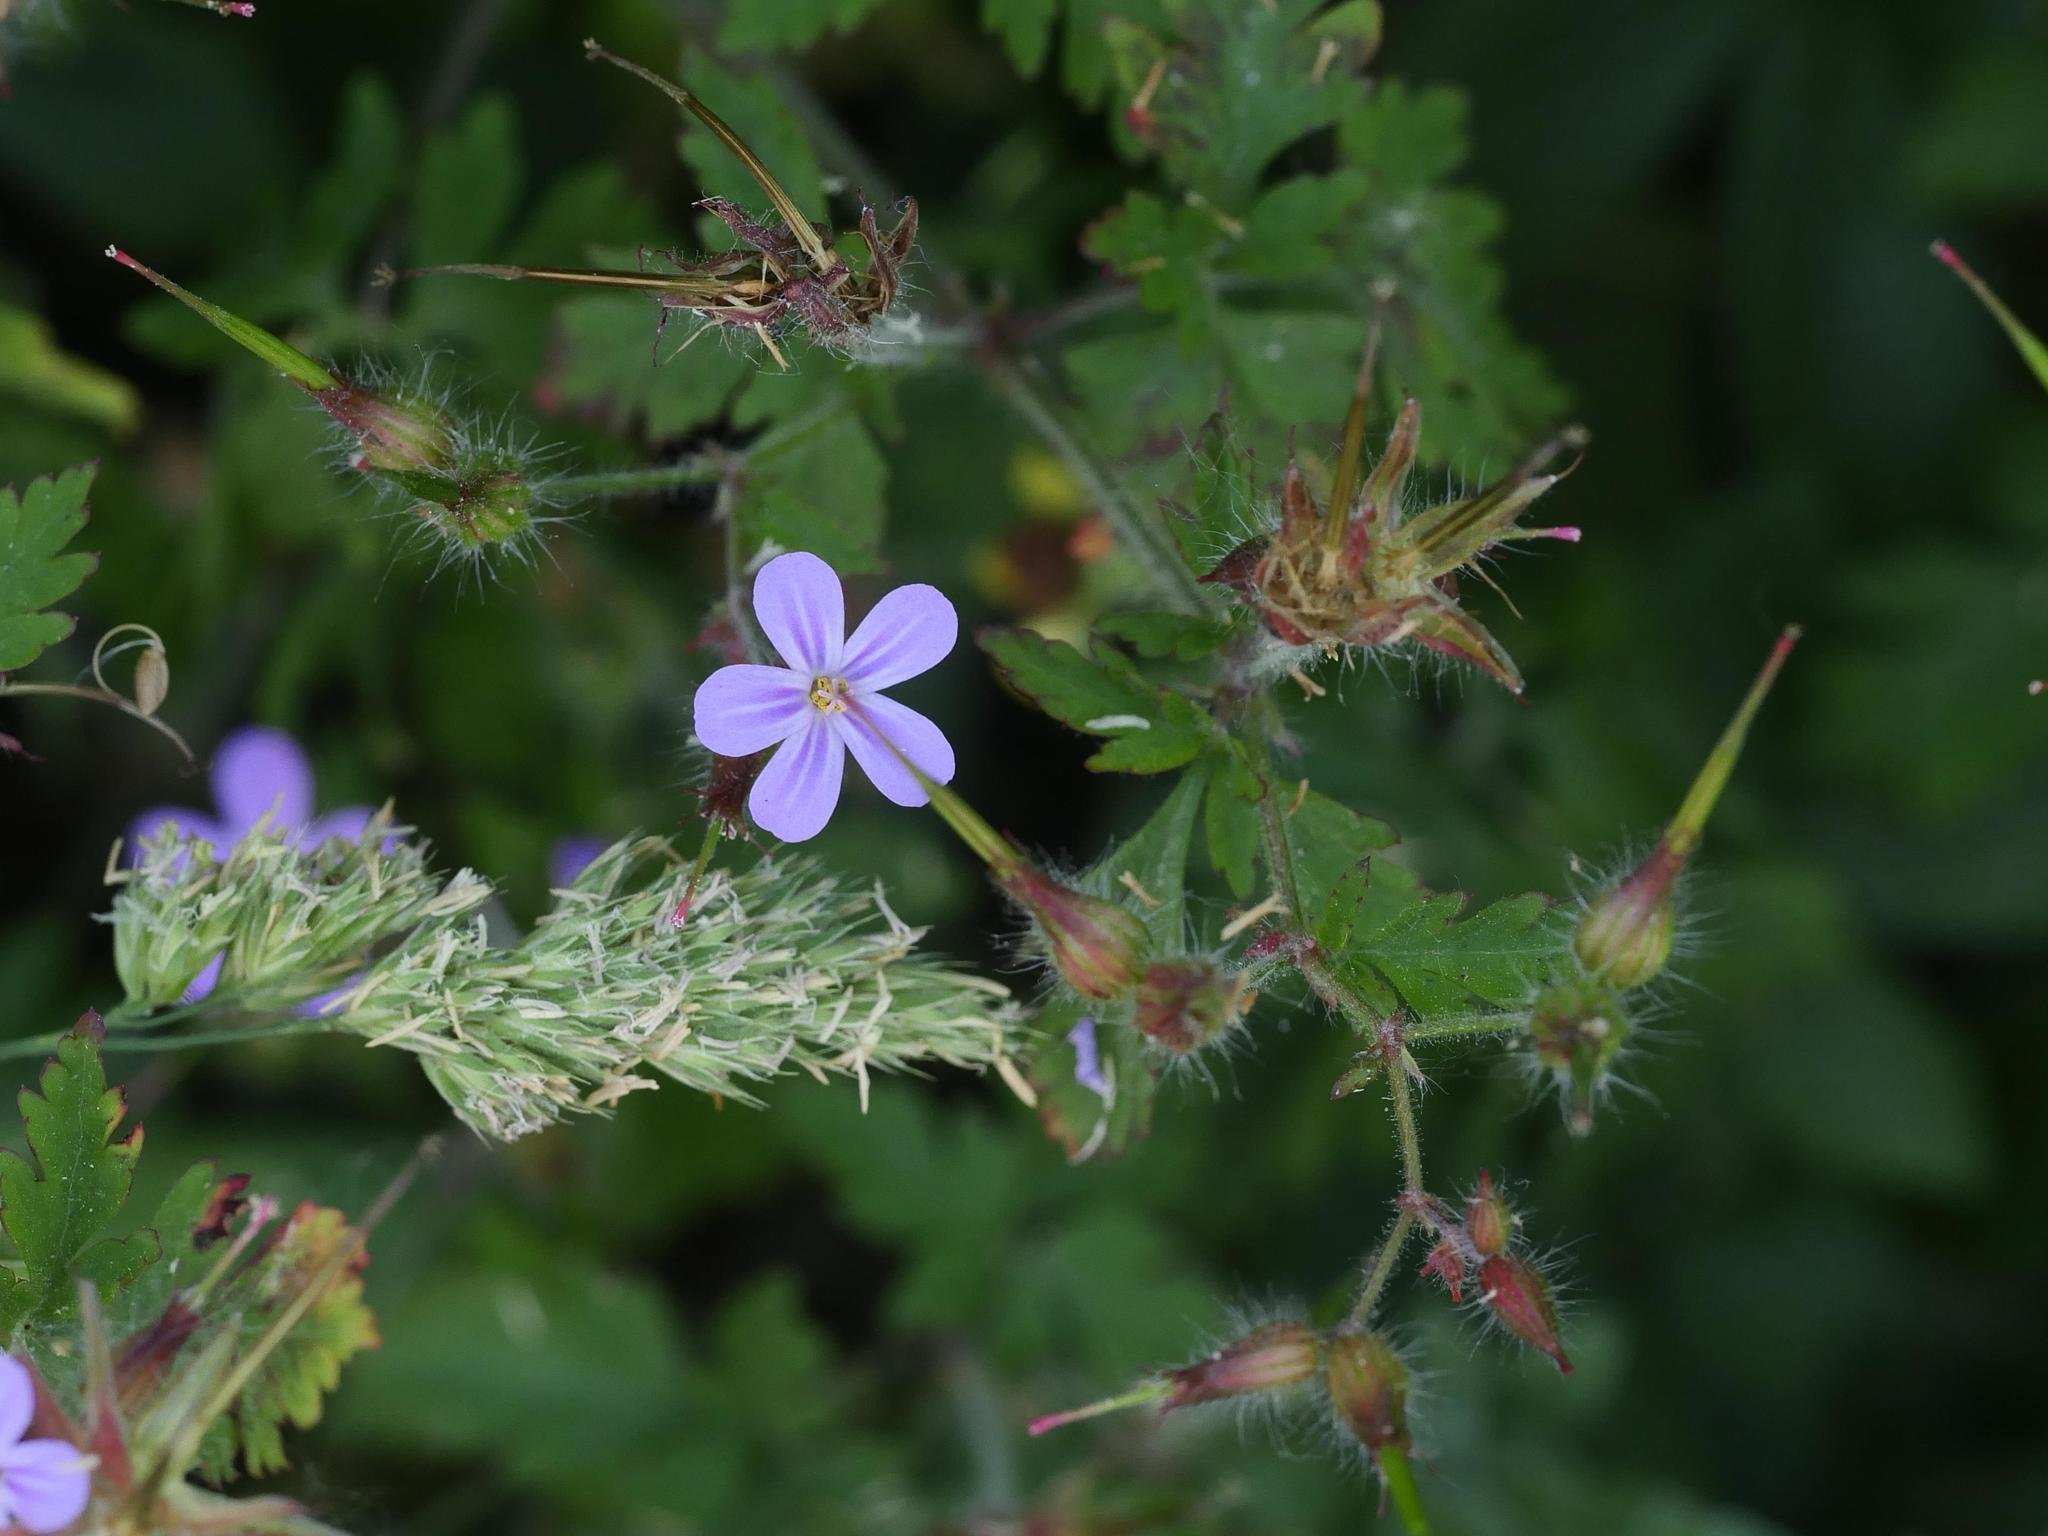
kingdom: Plantae
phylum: Tracheophyta
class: Magnoliopsida
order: Geraniales
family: Geraniaceae
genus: Geranium
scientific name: Geranium robertianum
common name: Herb-robert
